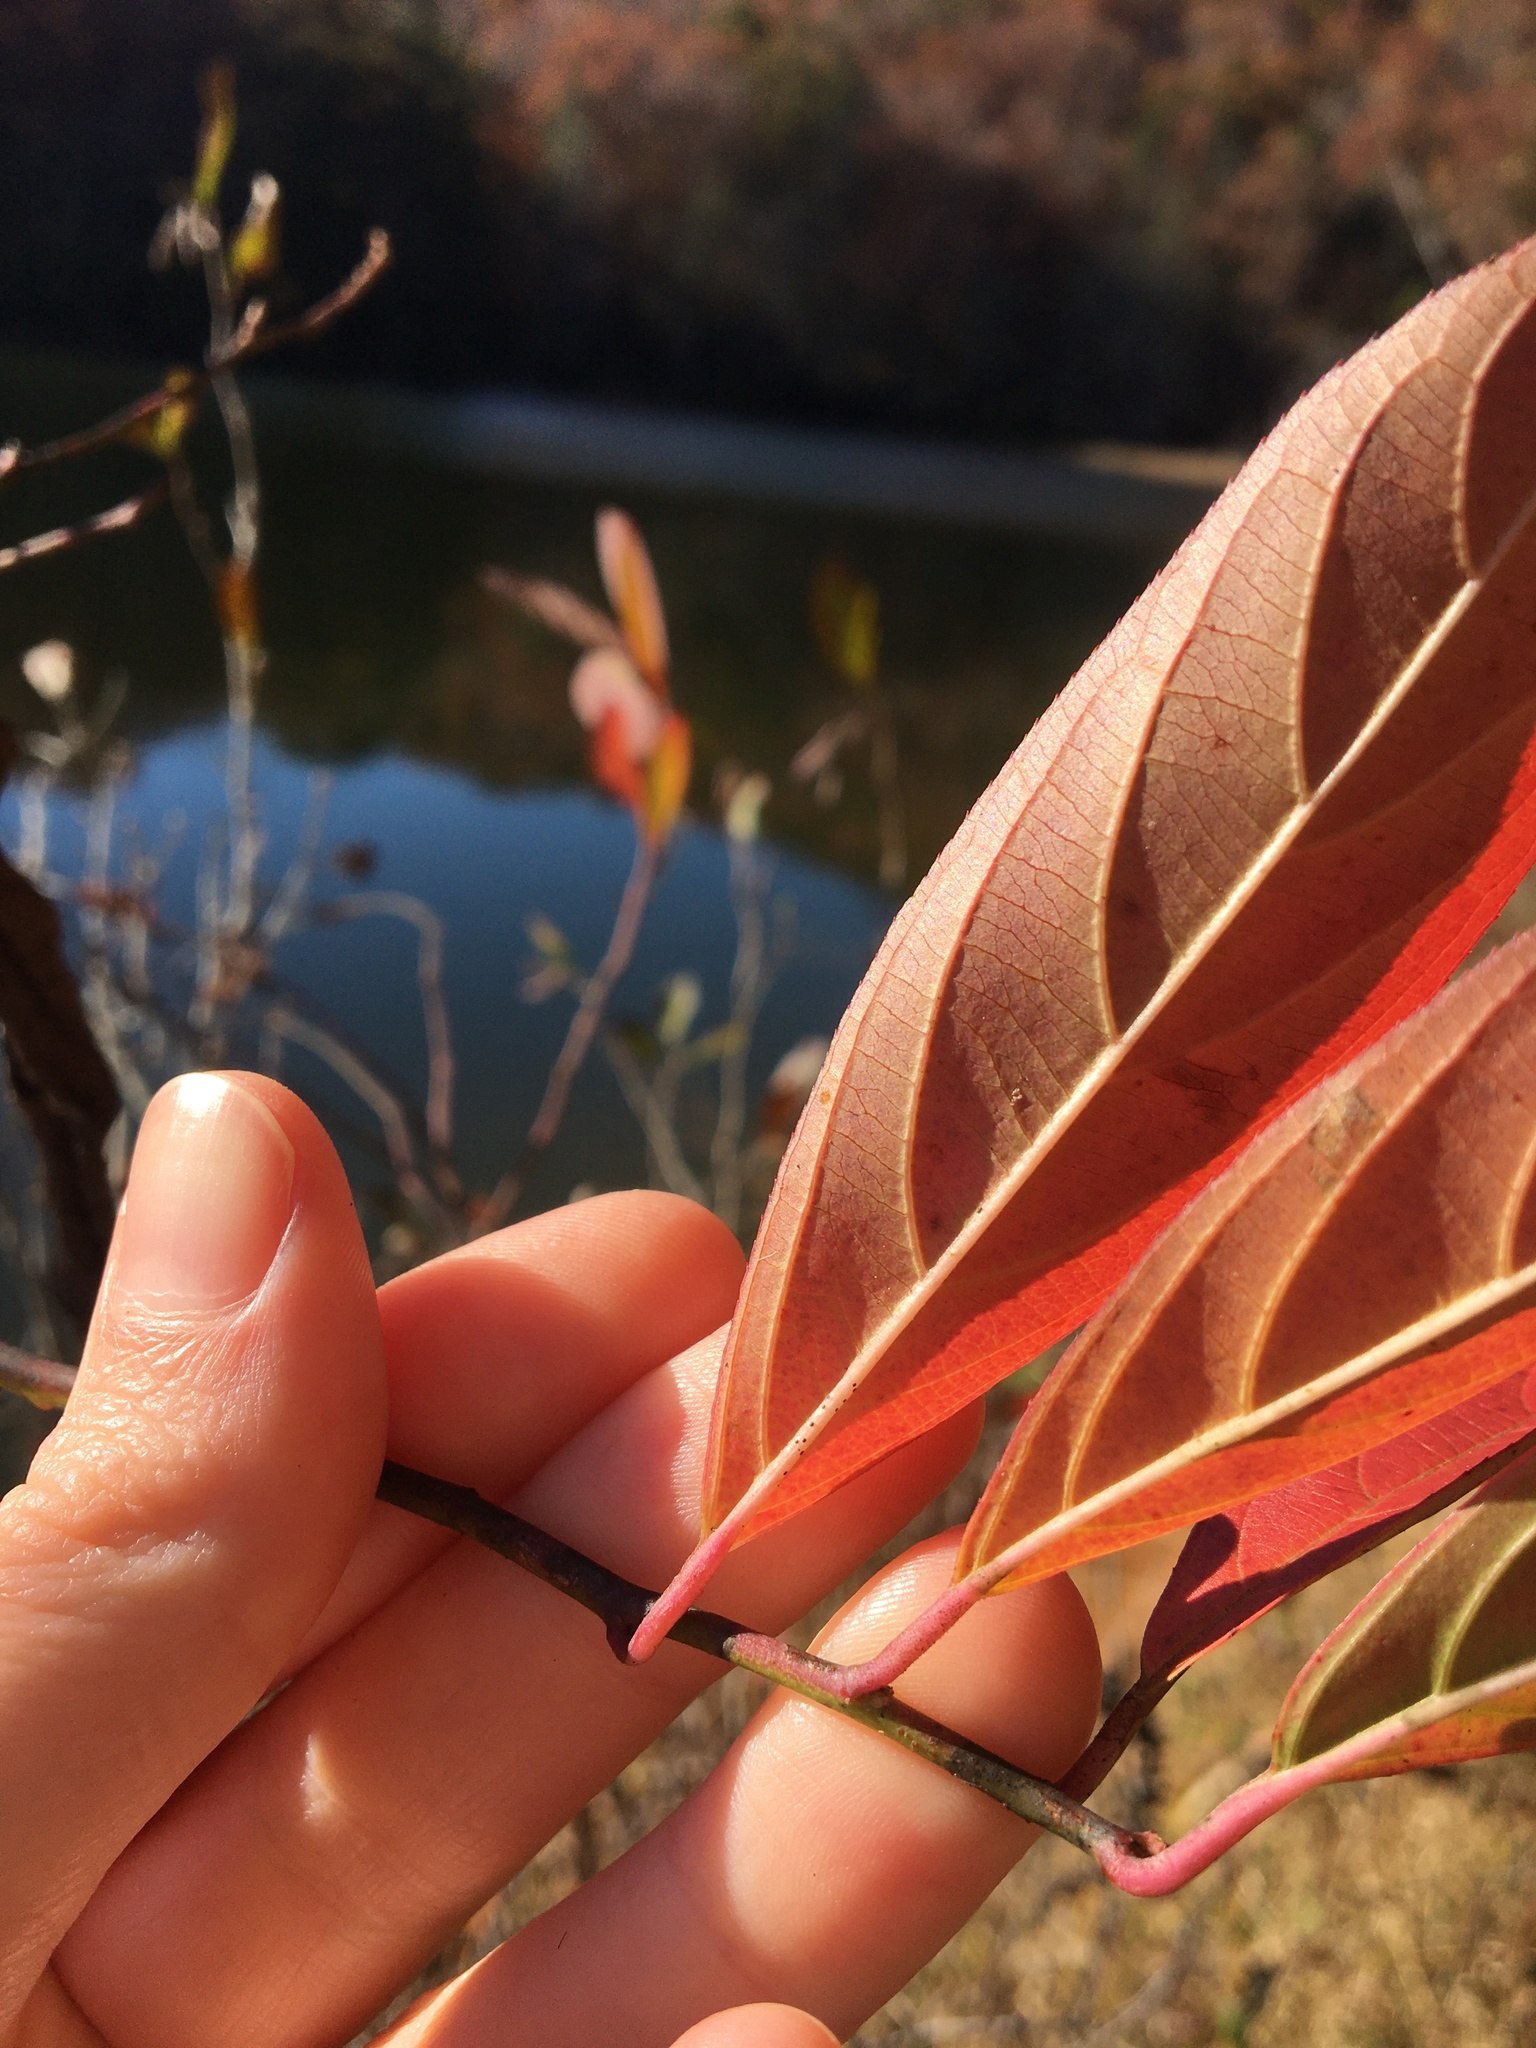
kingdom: Plantae
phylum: Tracheophyta
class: Magnoliopsida
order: Saxifragales
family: Iteaceae
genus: Itea
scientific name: Itea virginica
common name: Sweetspire
